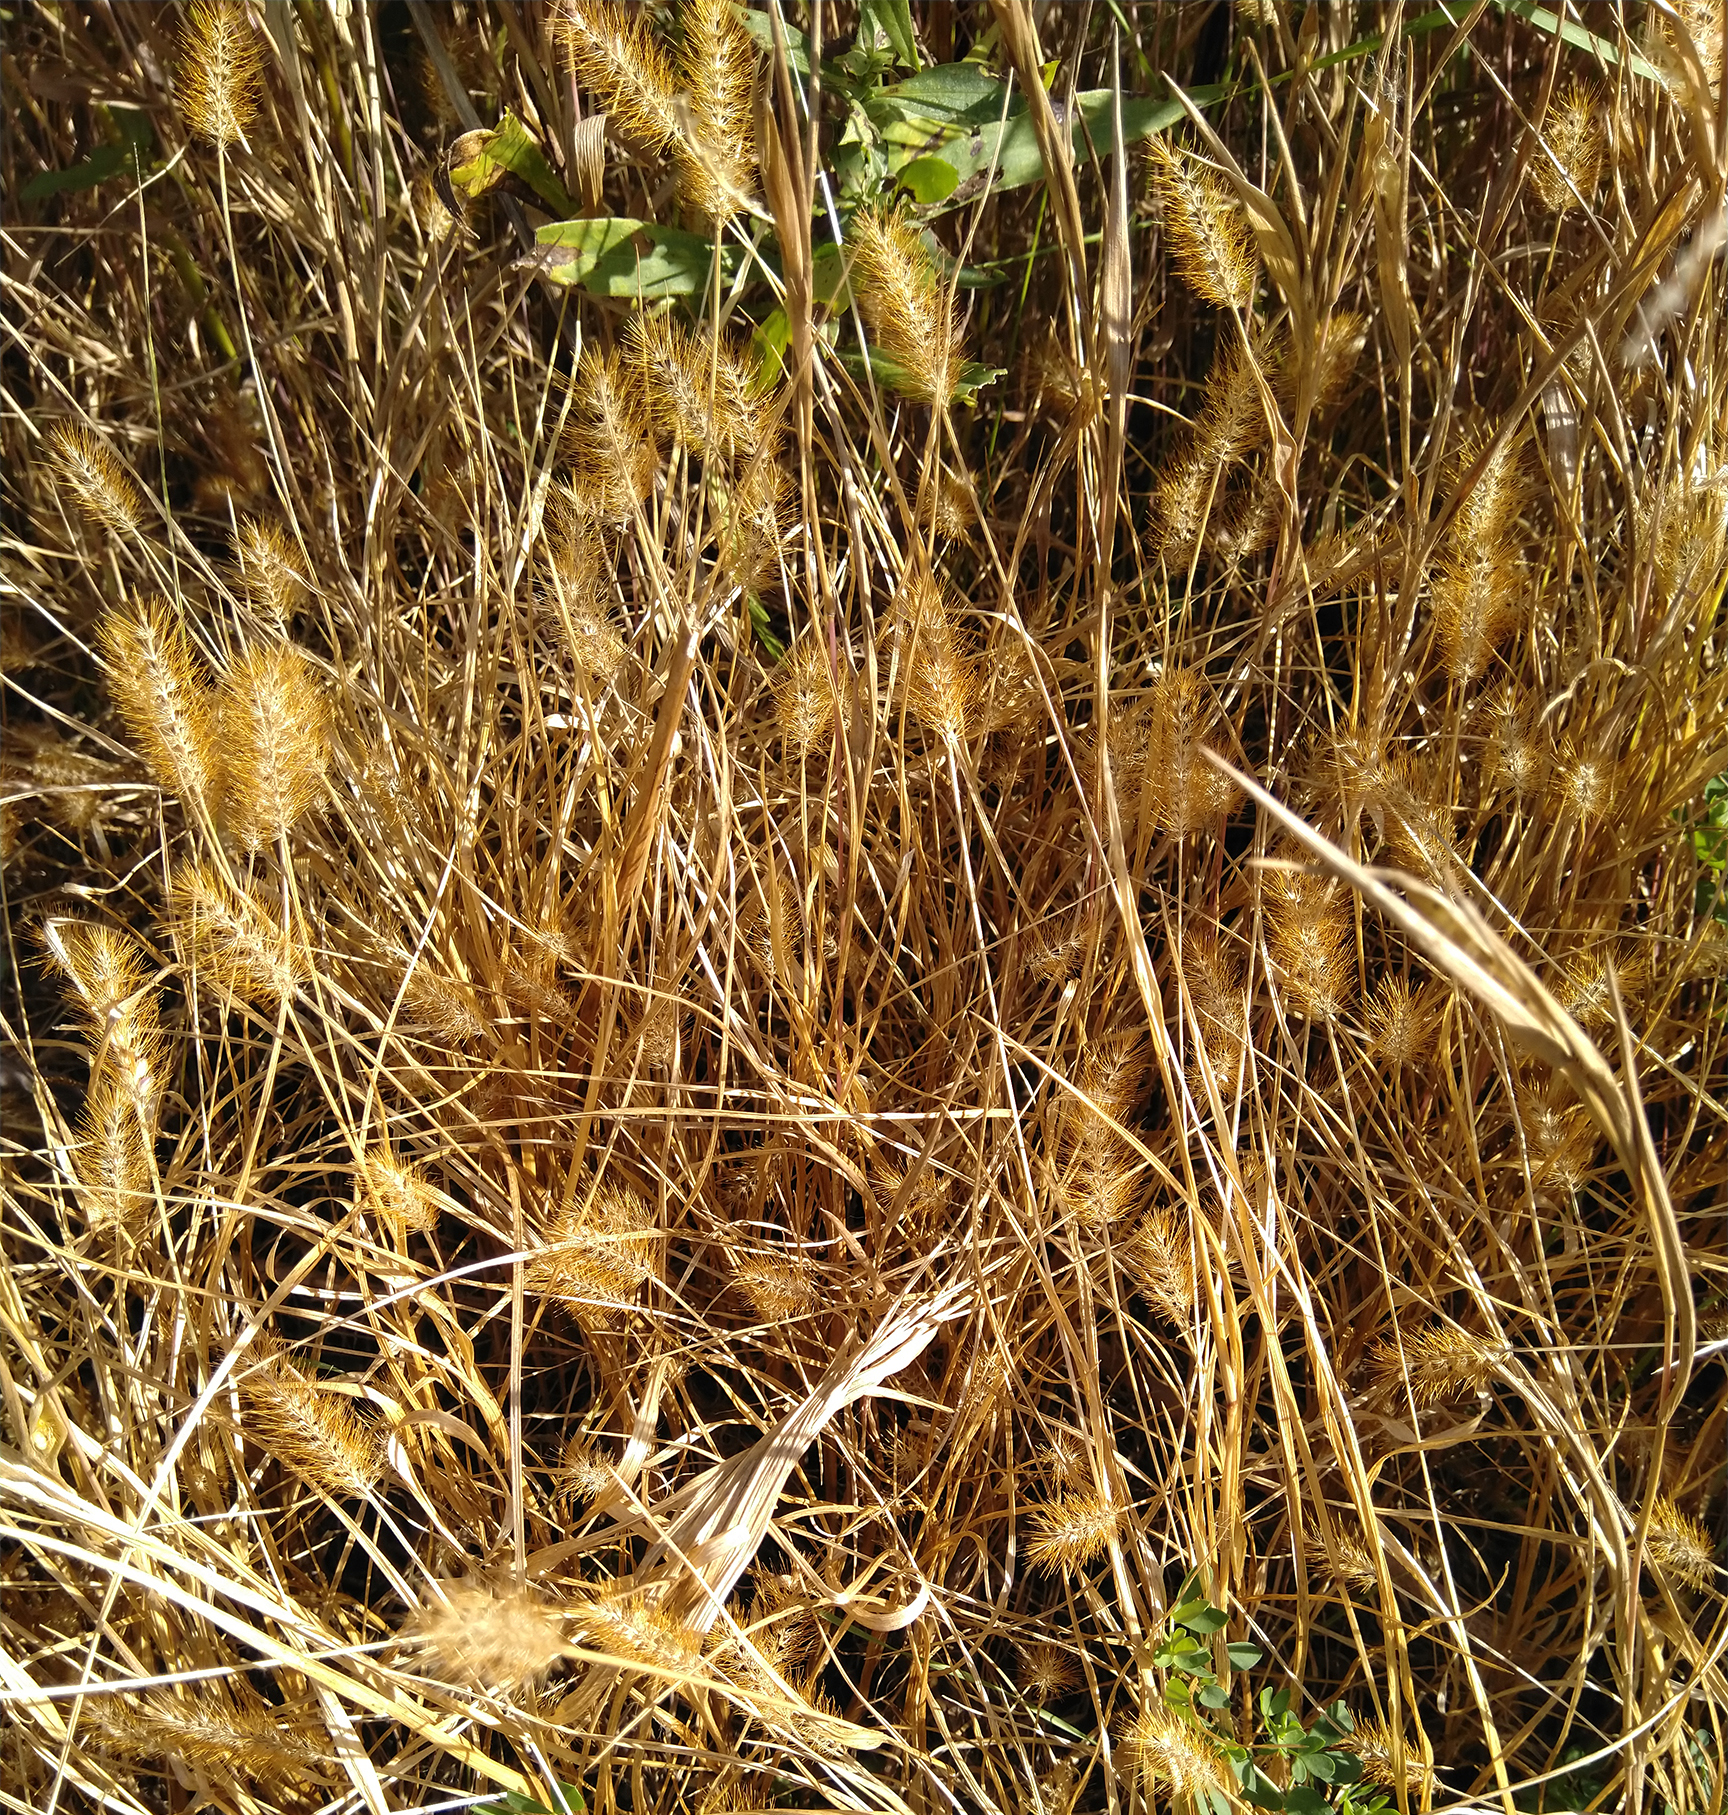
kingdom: Plantae
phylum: Tracheophyta
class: Liliopsida
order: Poales
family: Poaceae
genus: Setaria
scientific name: Setaria pumila
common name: Yellow bristle-grass
